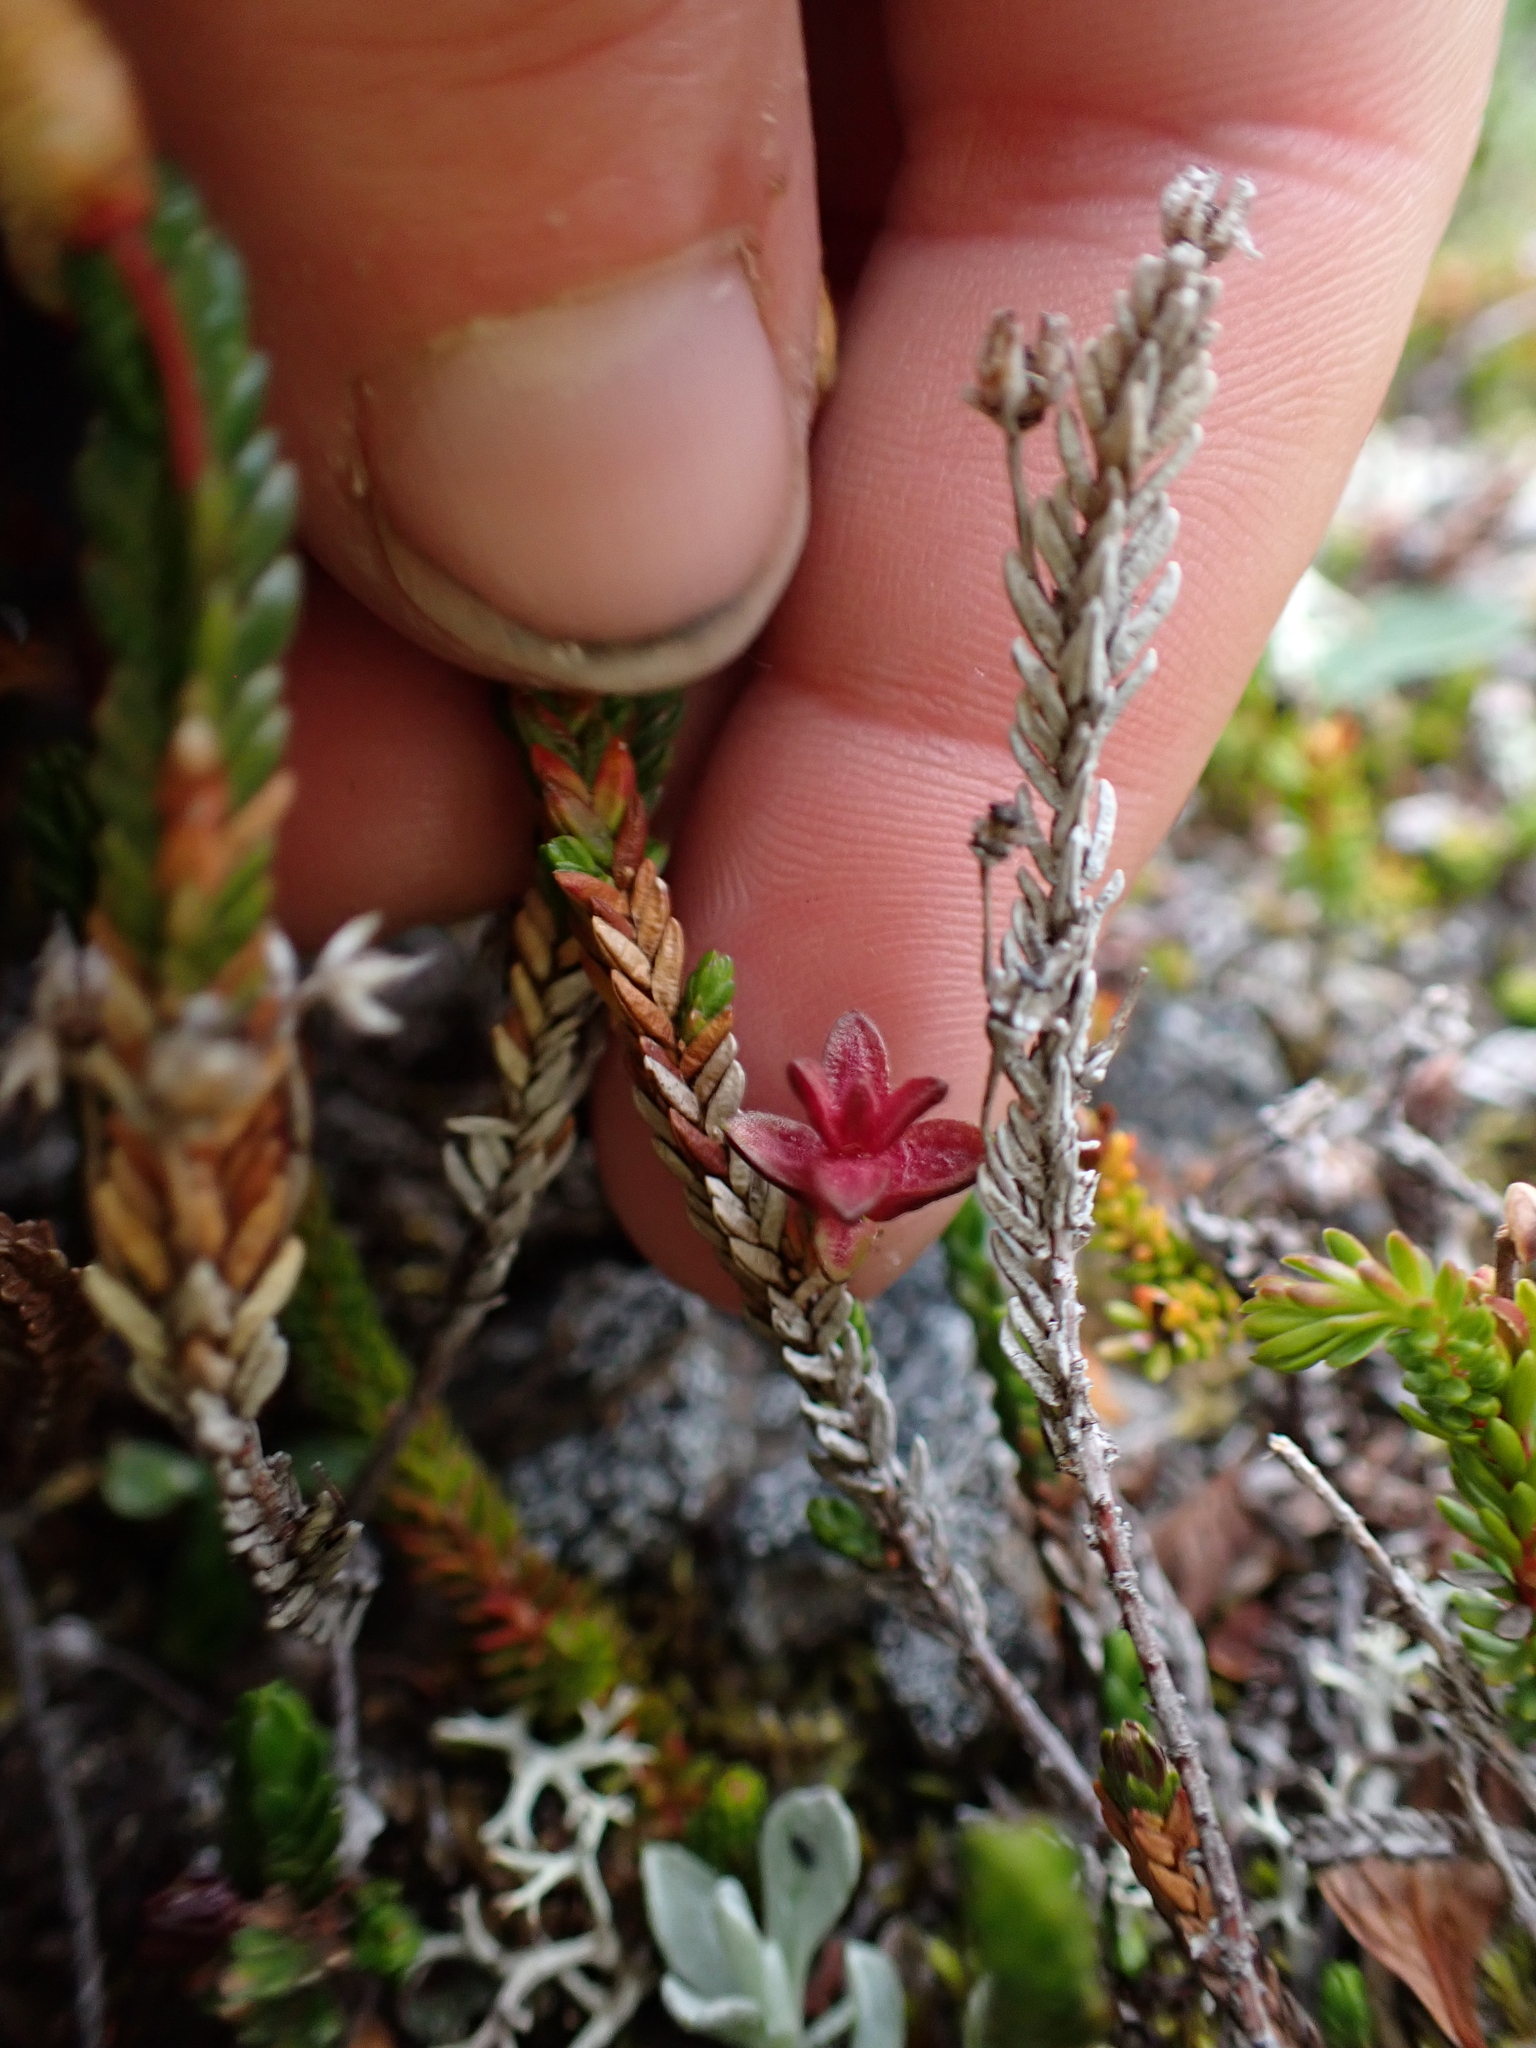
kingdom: Plantae
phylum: Tracheophyta
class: Magnoliopsida
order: Ericales
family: Ericaceae
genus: Cassiope
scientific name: Cassiope mertensiana
